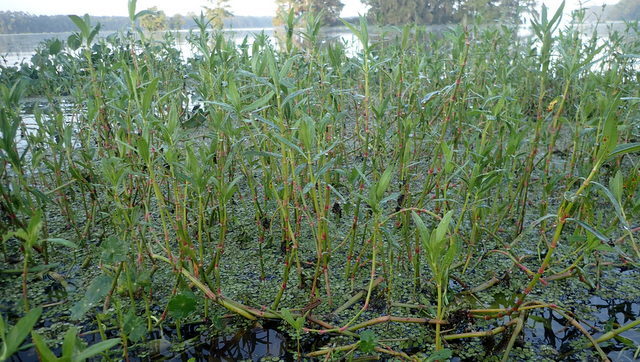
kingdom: Plantae
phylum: Tracheophyta
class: Magnoliopsida
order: Caryophyllales
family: Amaranthaceae
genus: Alternanthera
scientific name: Alternanthera philoxeroides
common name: Alligatorweed
